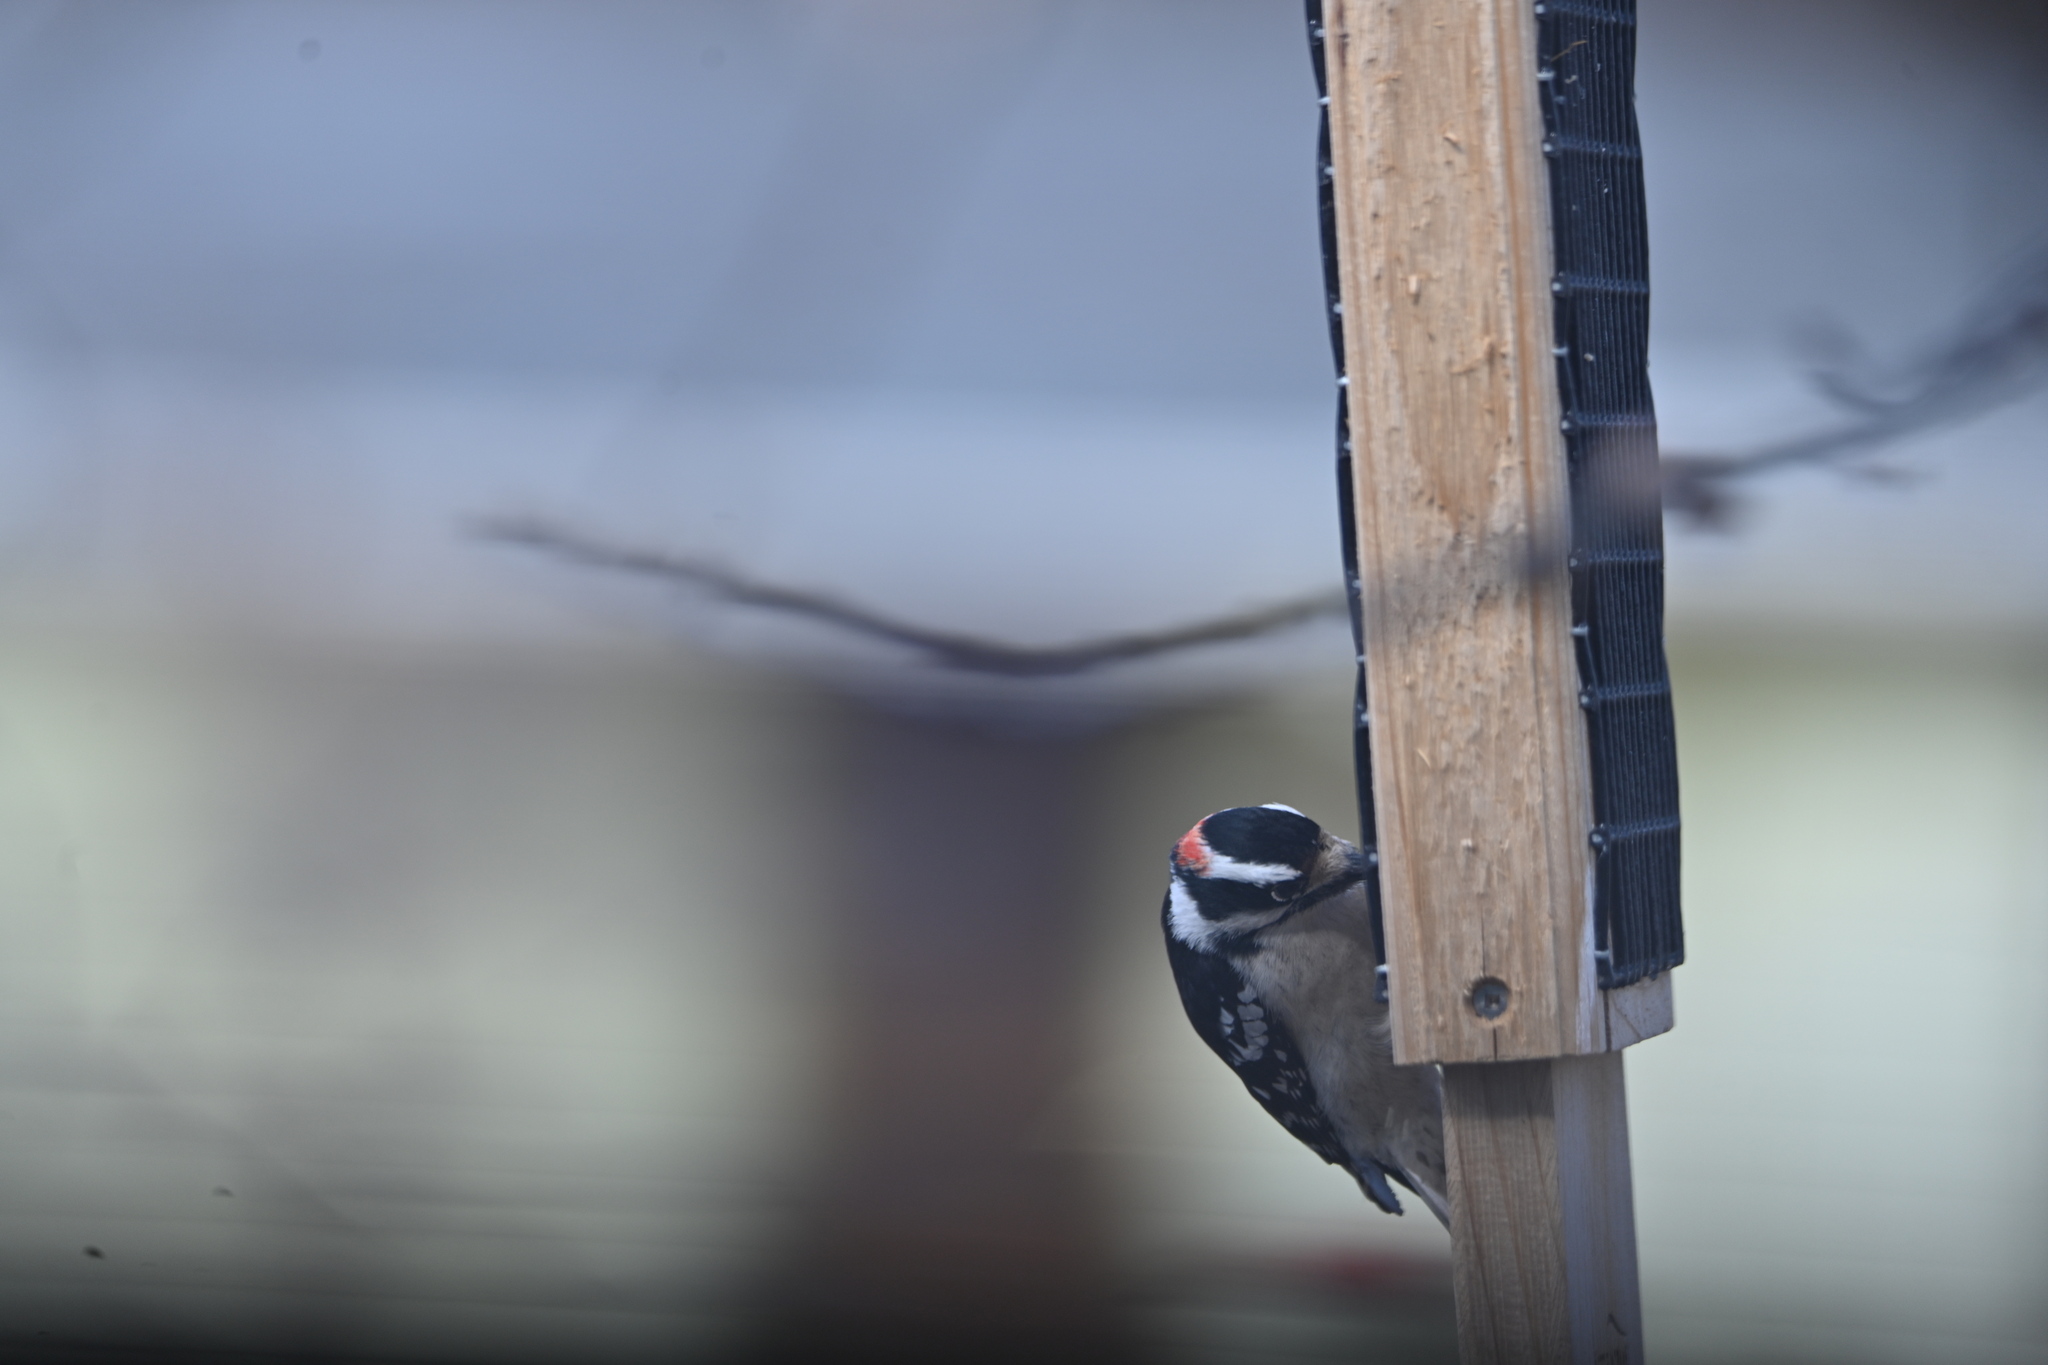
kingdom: Animalia
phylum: Chordata
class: Aves
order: Piciformes
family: Picidae
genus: Dryobates
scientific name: Dryobates pubescens
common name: Downy woodpecker
